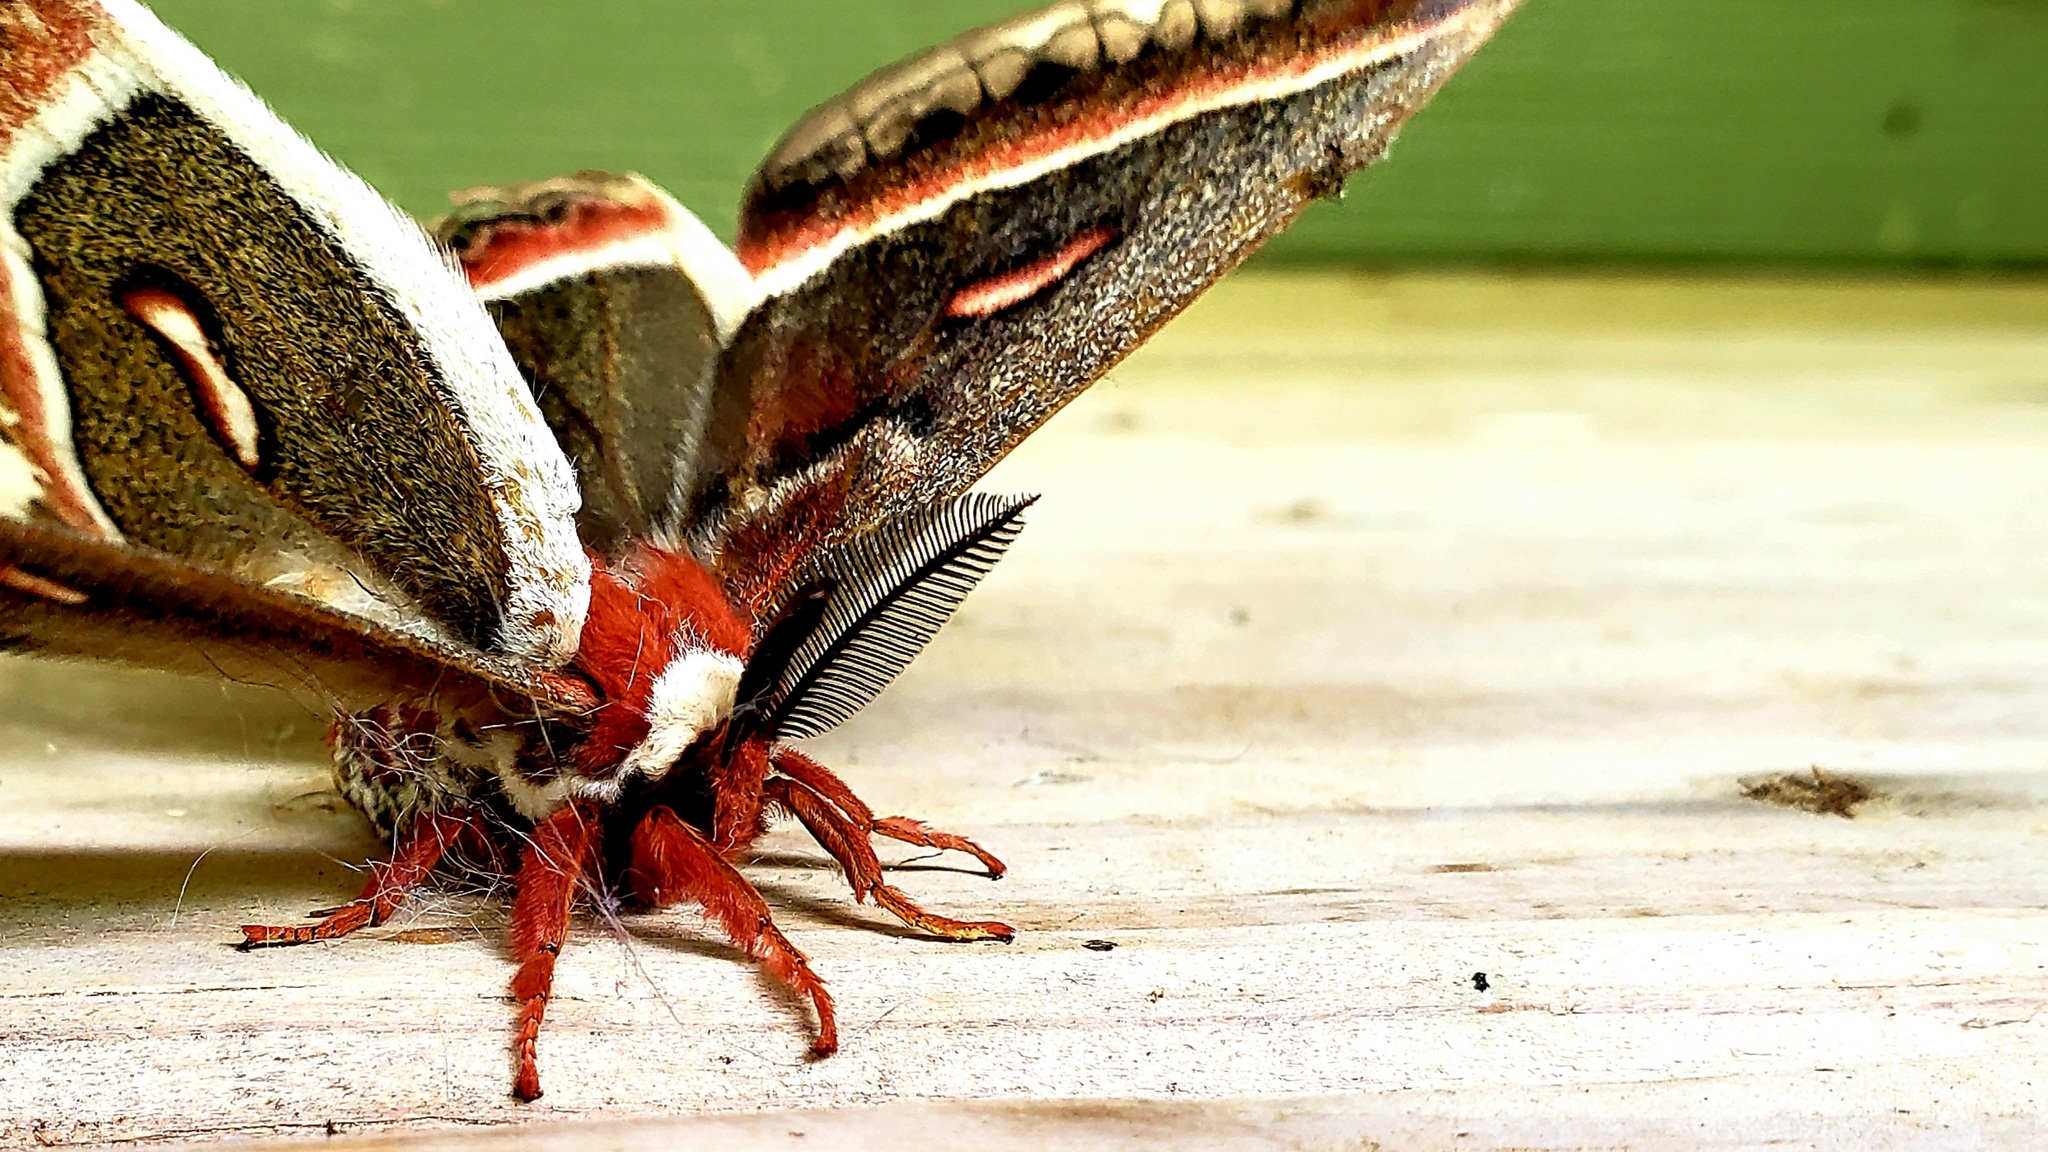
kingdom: Animalia
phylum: Arthropoda
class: Insecta
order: Lepidoptera
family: Saturniidae
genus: Hyalophora
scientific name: Hyalophora cecropia
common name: Cecropia silkmoth
